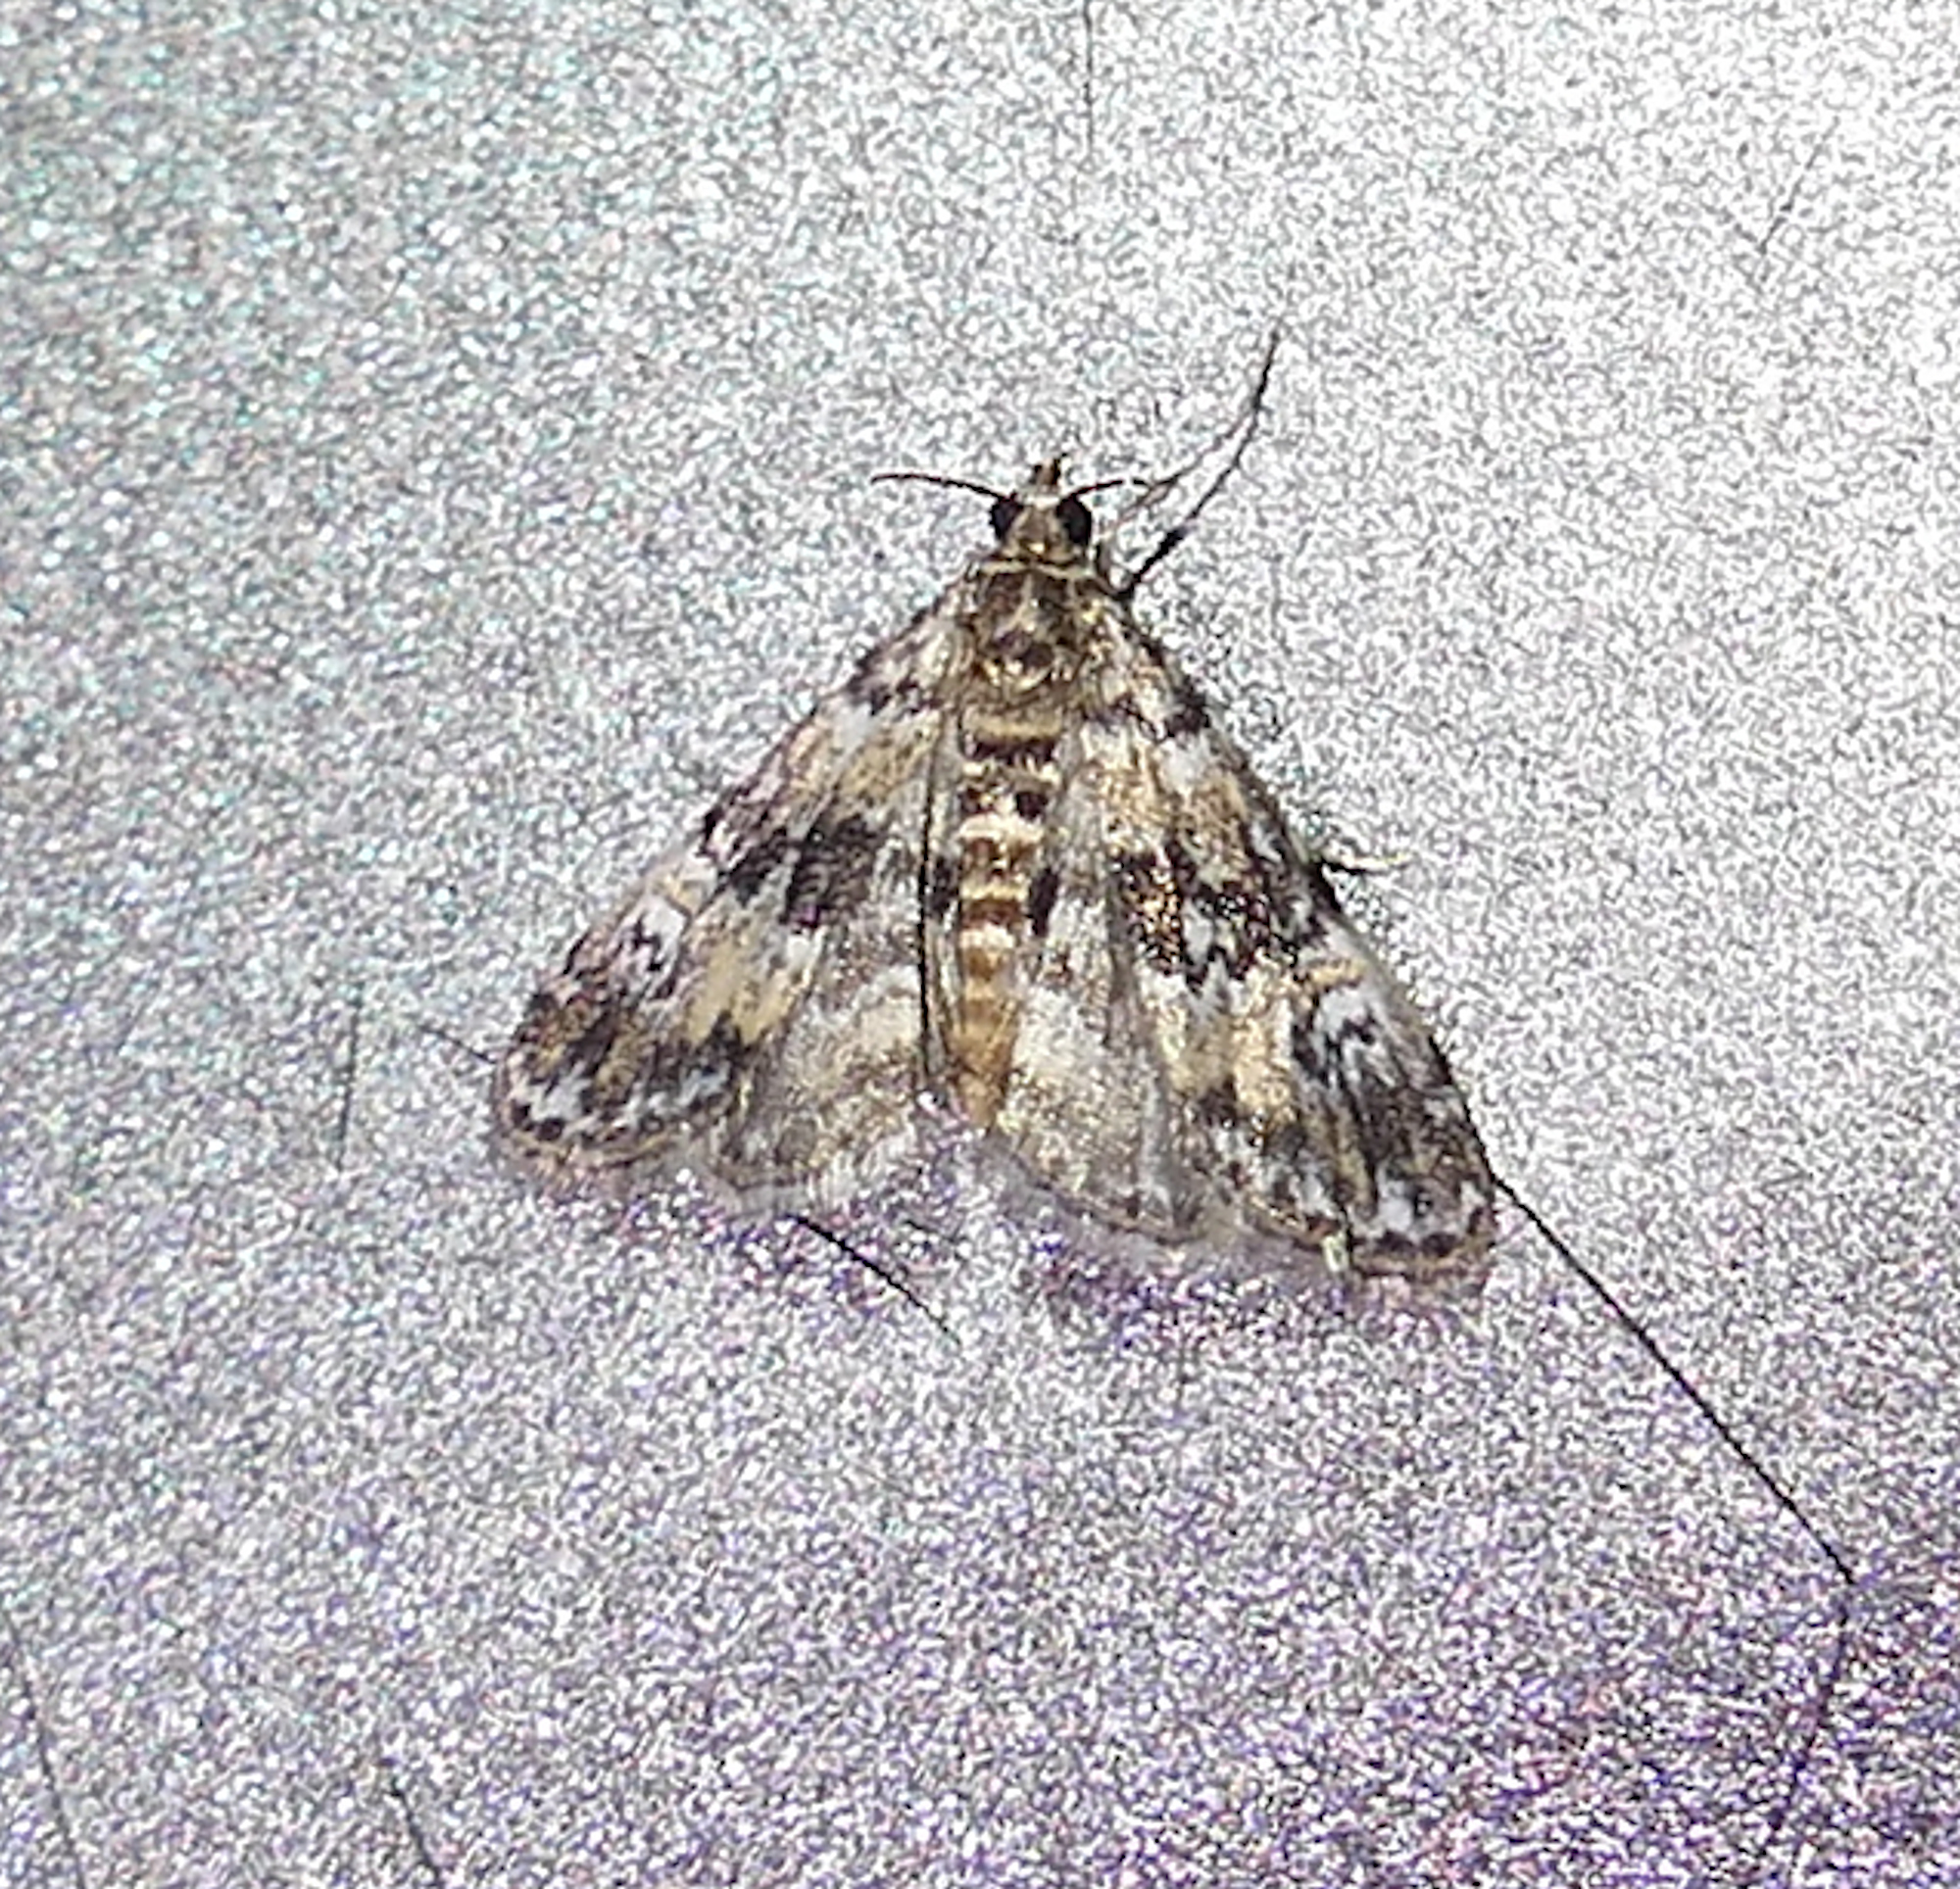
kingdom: Animalia
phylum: Arthropoda
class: Insecta
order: Lepidoptera
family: Crambidae
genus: Elophila
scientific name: Elophila obliteralis
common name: Waterlily leafcutter moth
